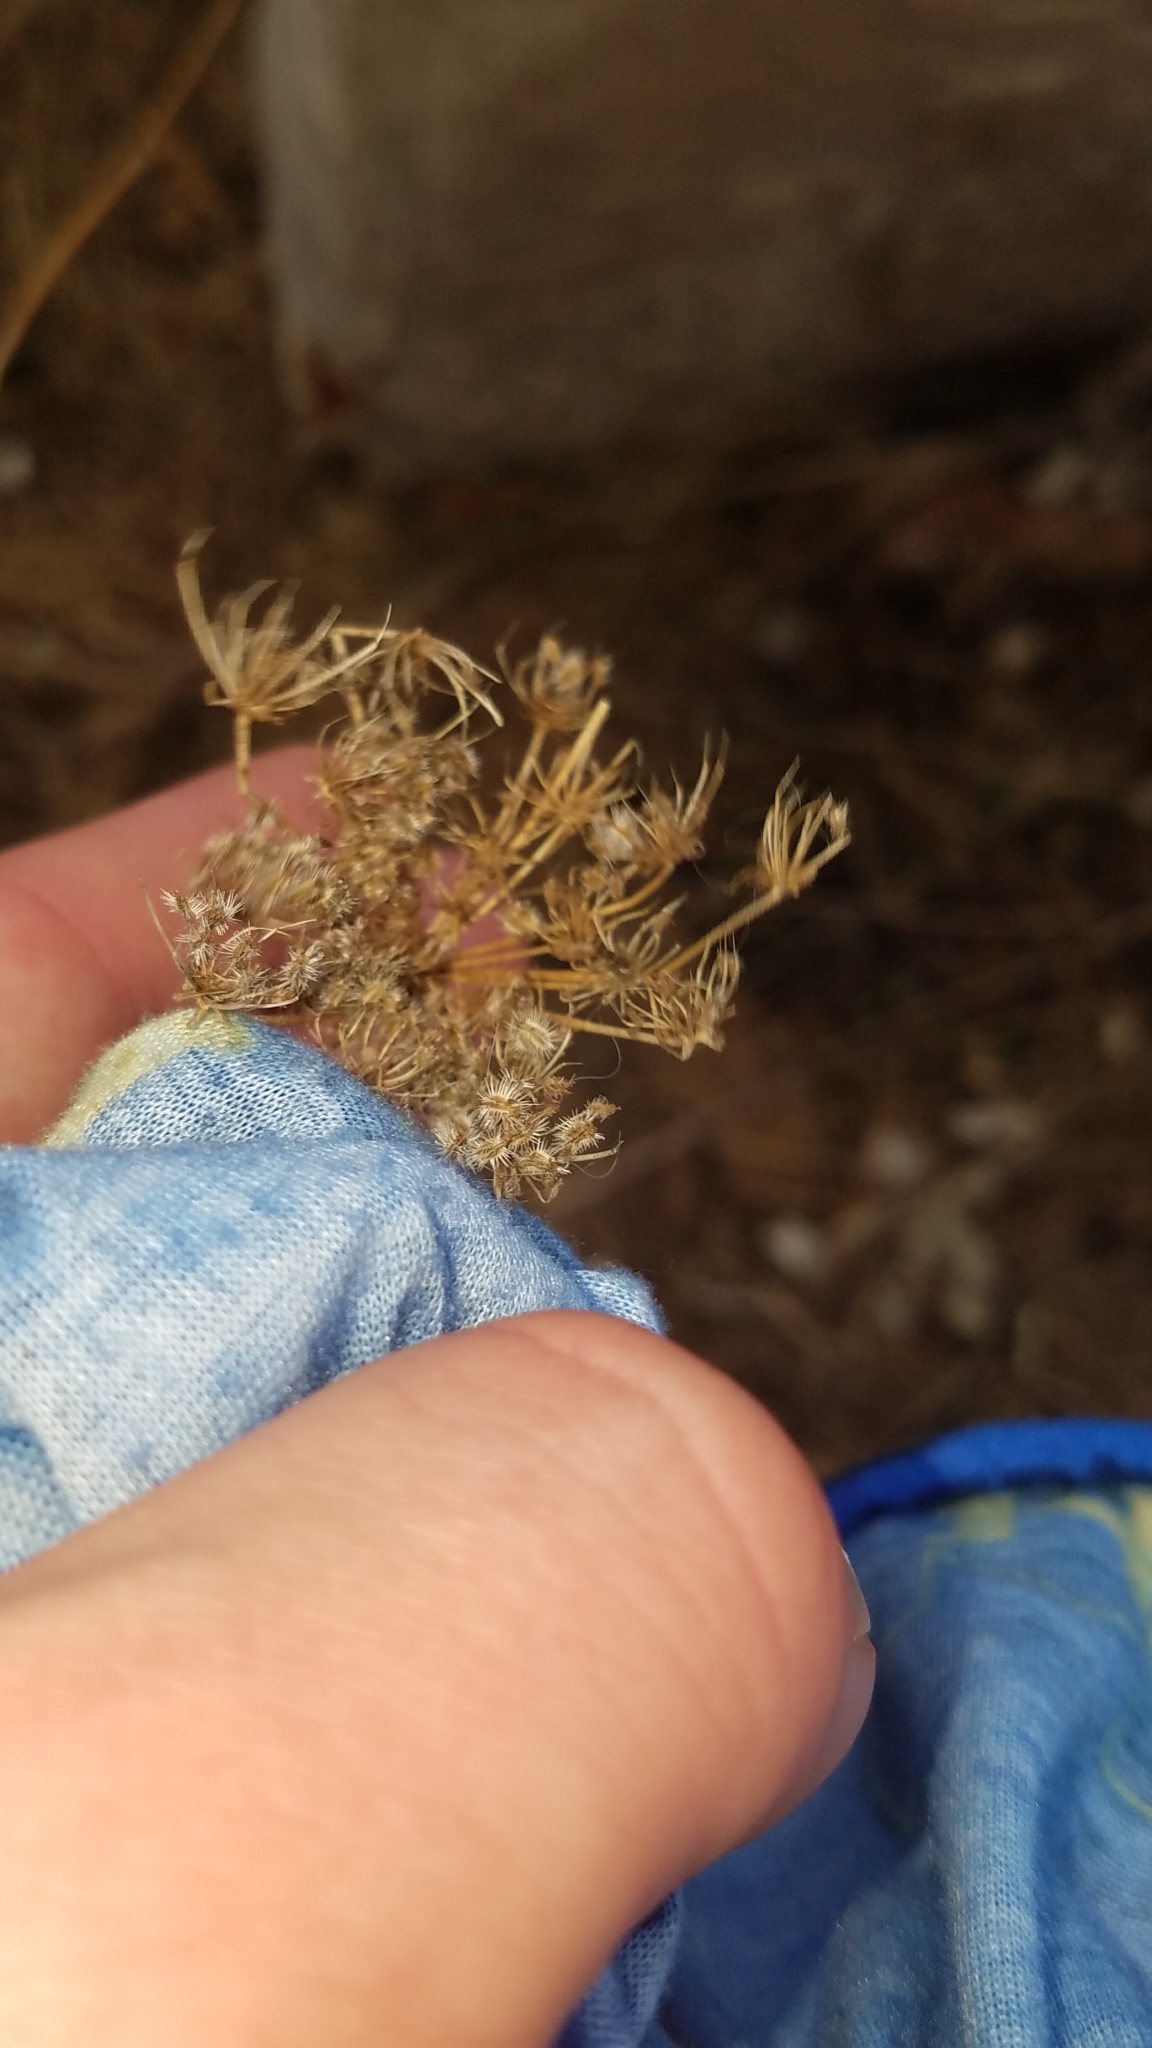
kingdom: Plantae
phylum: Tracheophyta
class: Magnoliopsida
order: Apiales
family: Apiaceae
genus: Daucus
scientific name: Daucus carota
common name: Wild carrot
